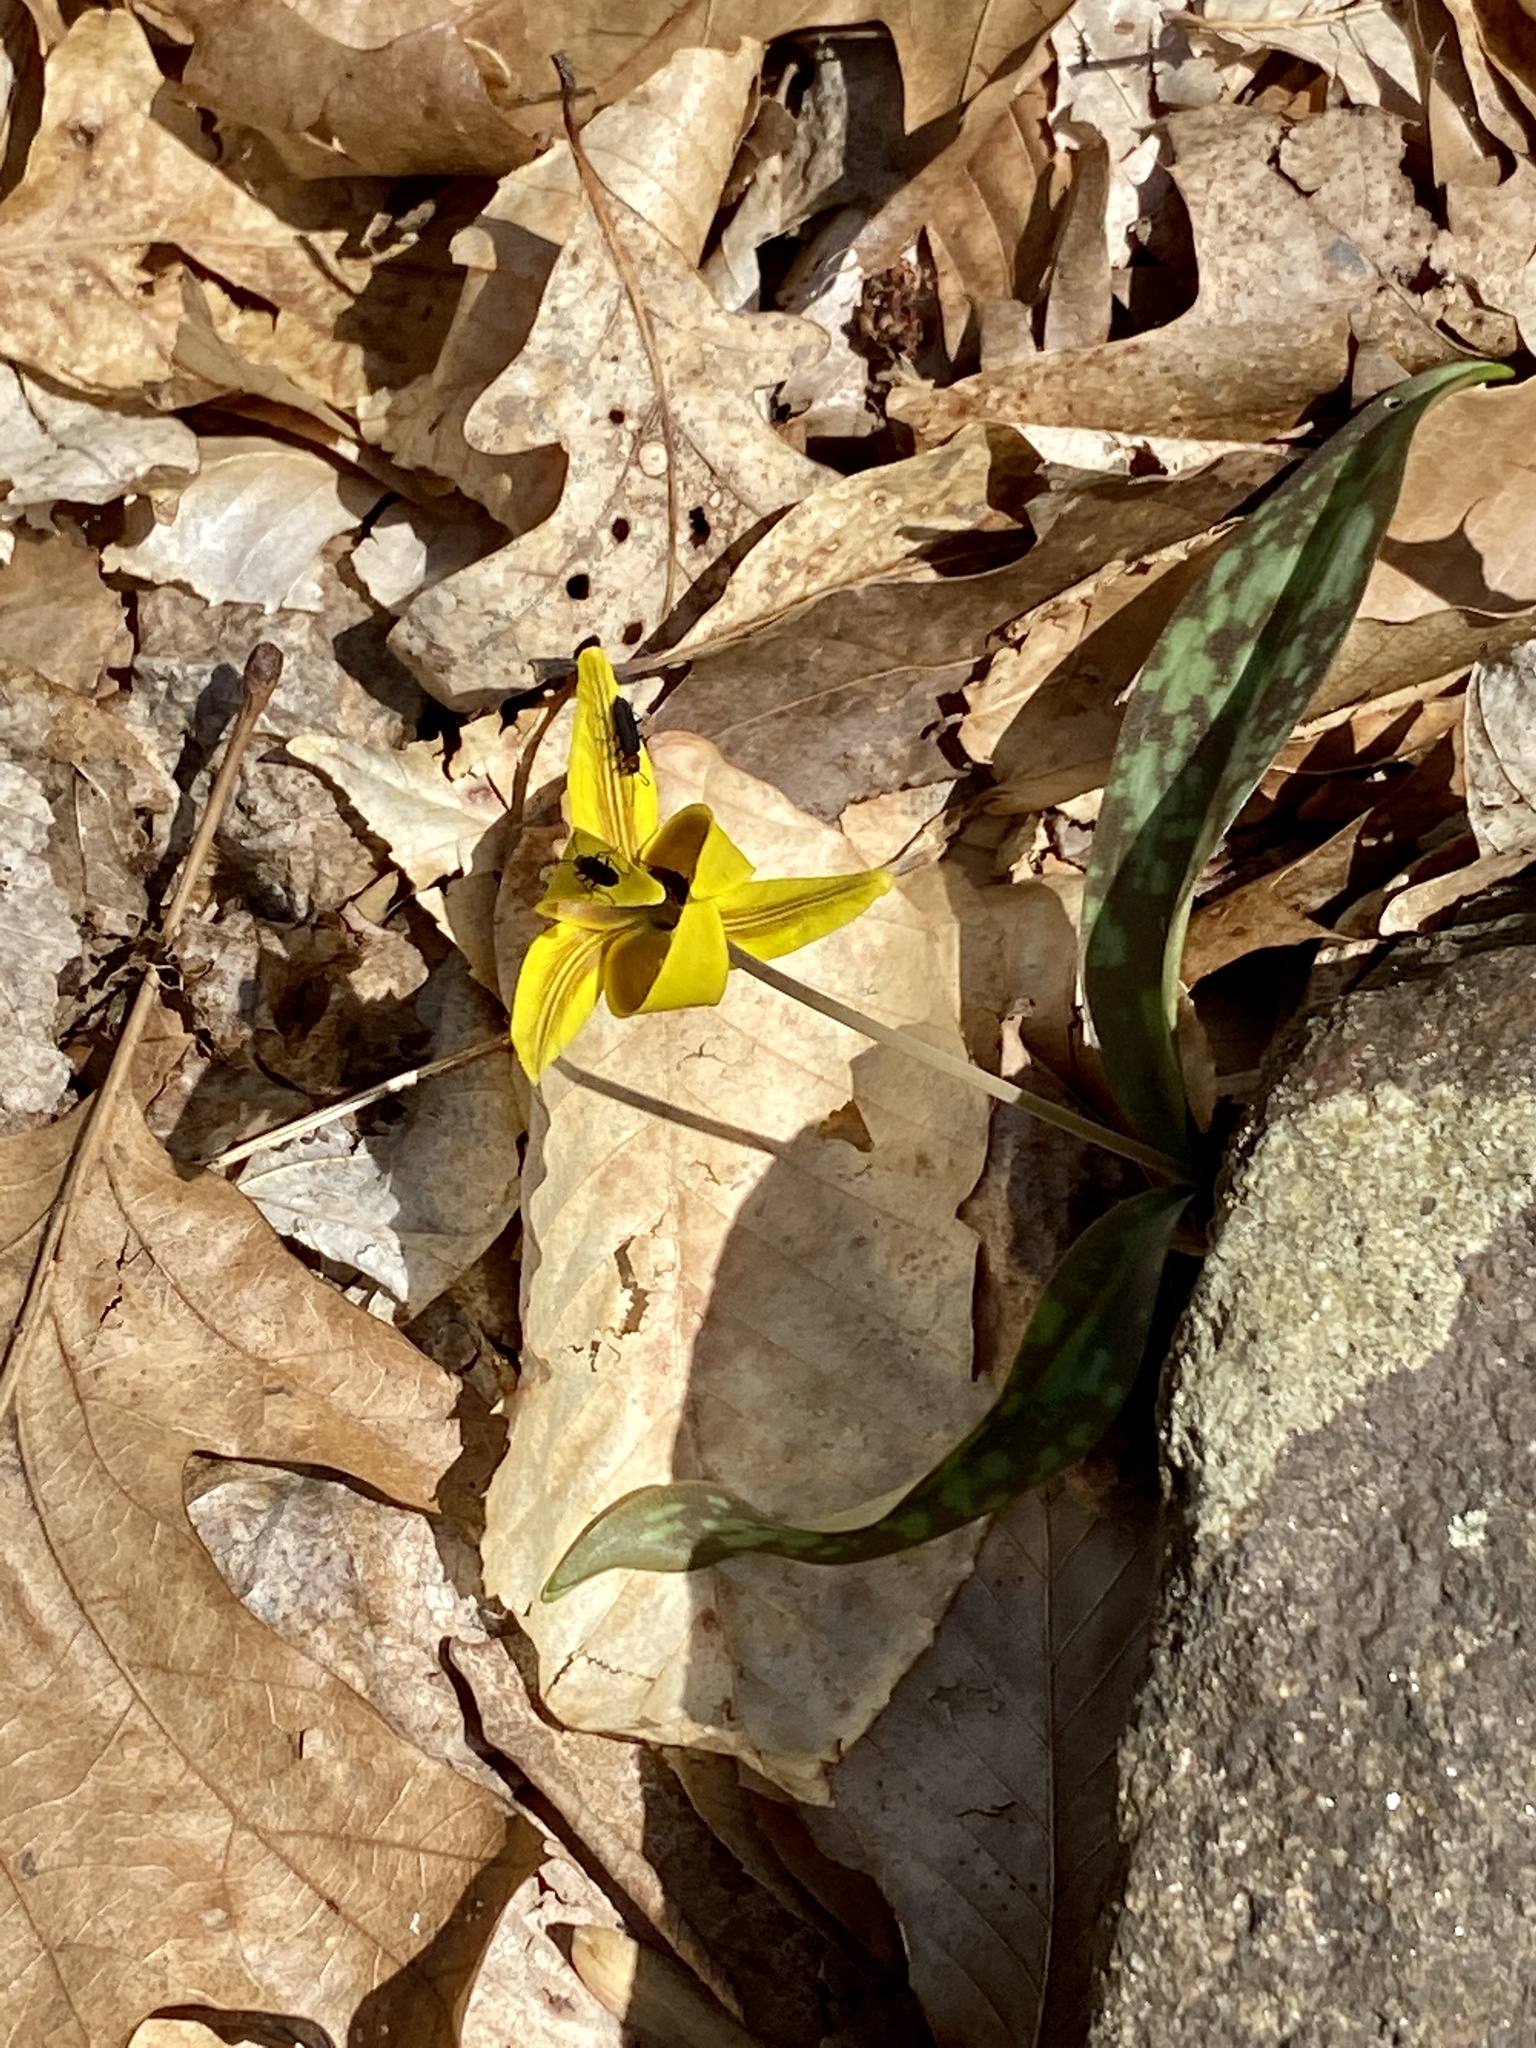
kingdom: Animalia
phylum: Arthropoda
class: Insecta
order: Coleoptera
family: Oedemeridae
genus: Ischnomera
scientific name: Ischnomera
